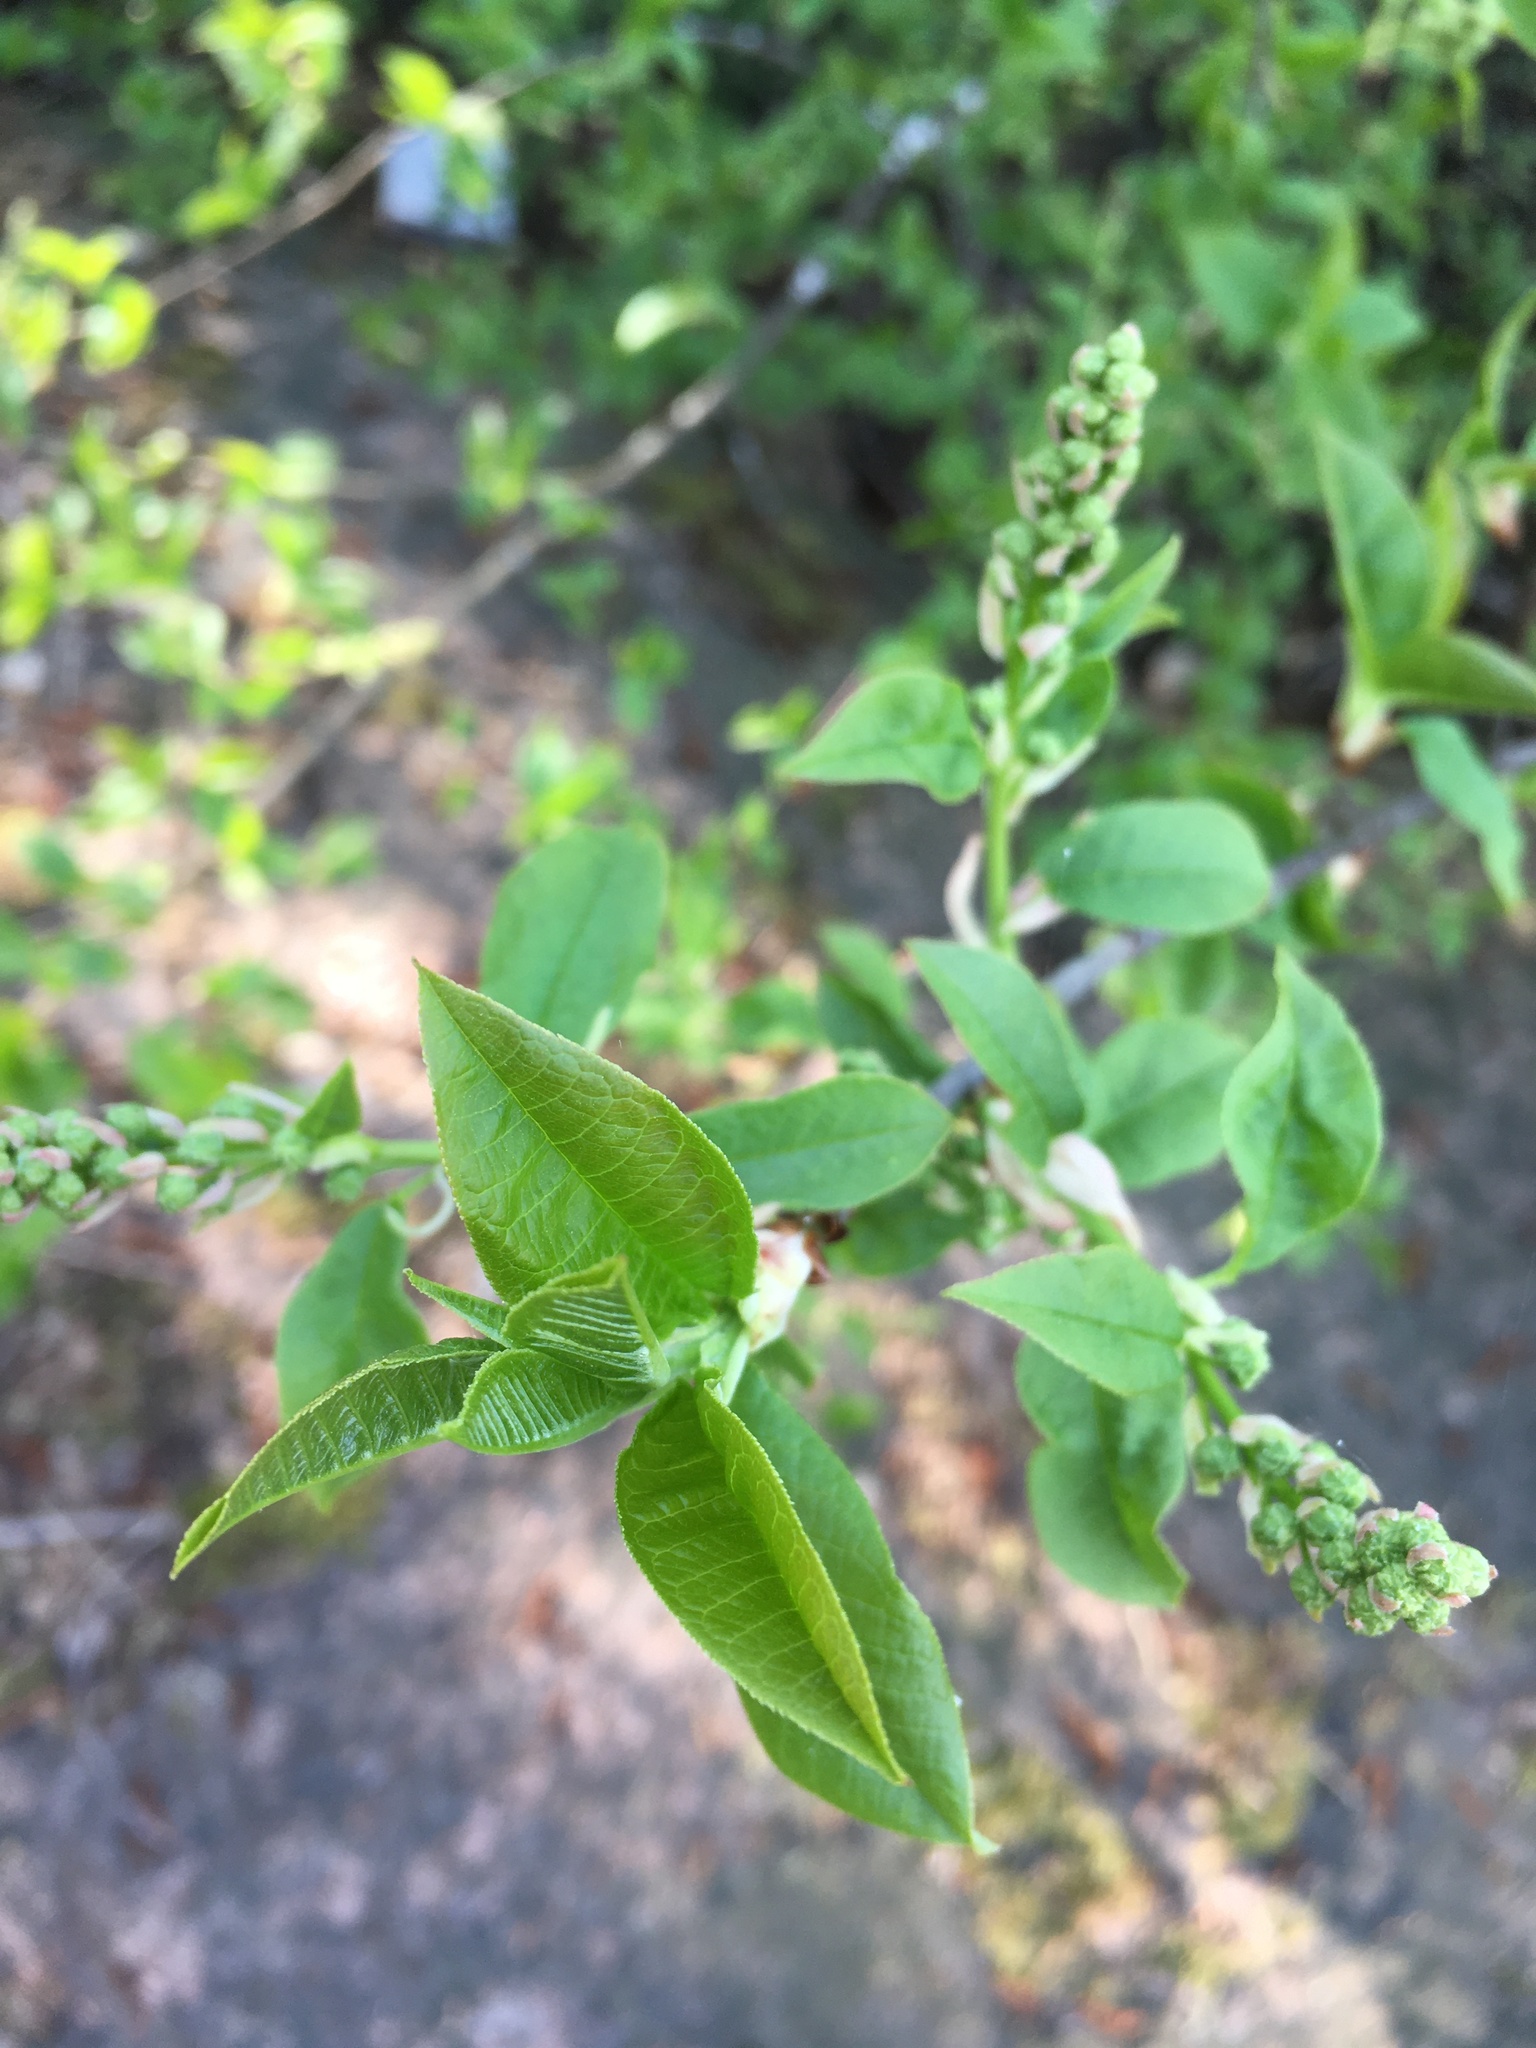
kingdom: Plantae
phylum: Tracheophyta
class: Magnoliopsida
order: Rosales
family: Rosaceae
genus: Prunus
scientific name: Prunus padus
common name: Bird cherry
